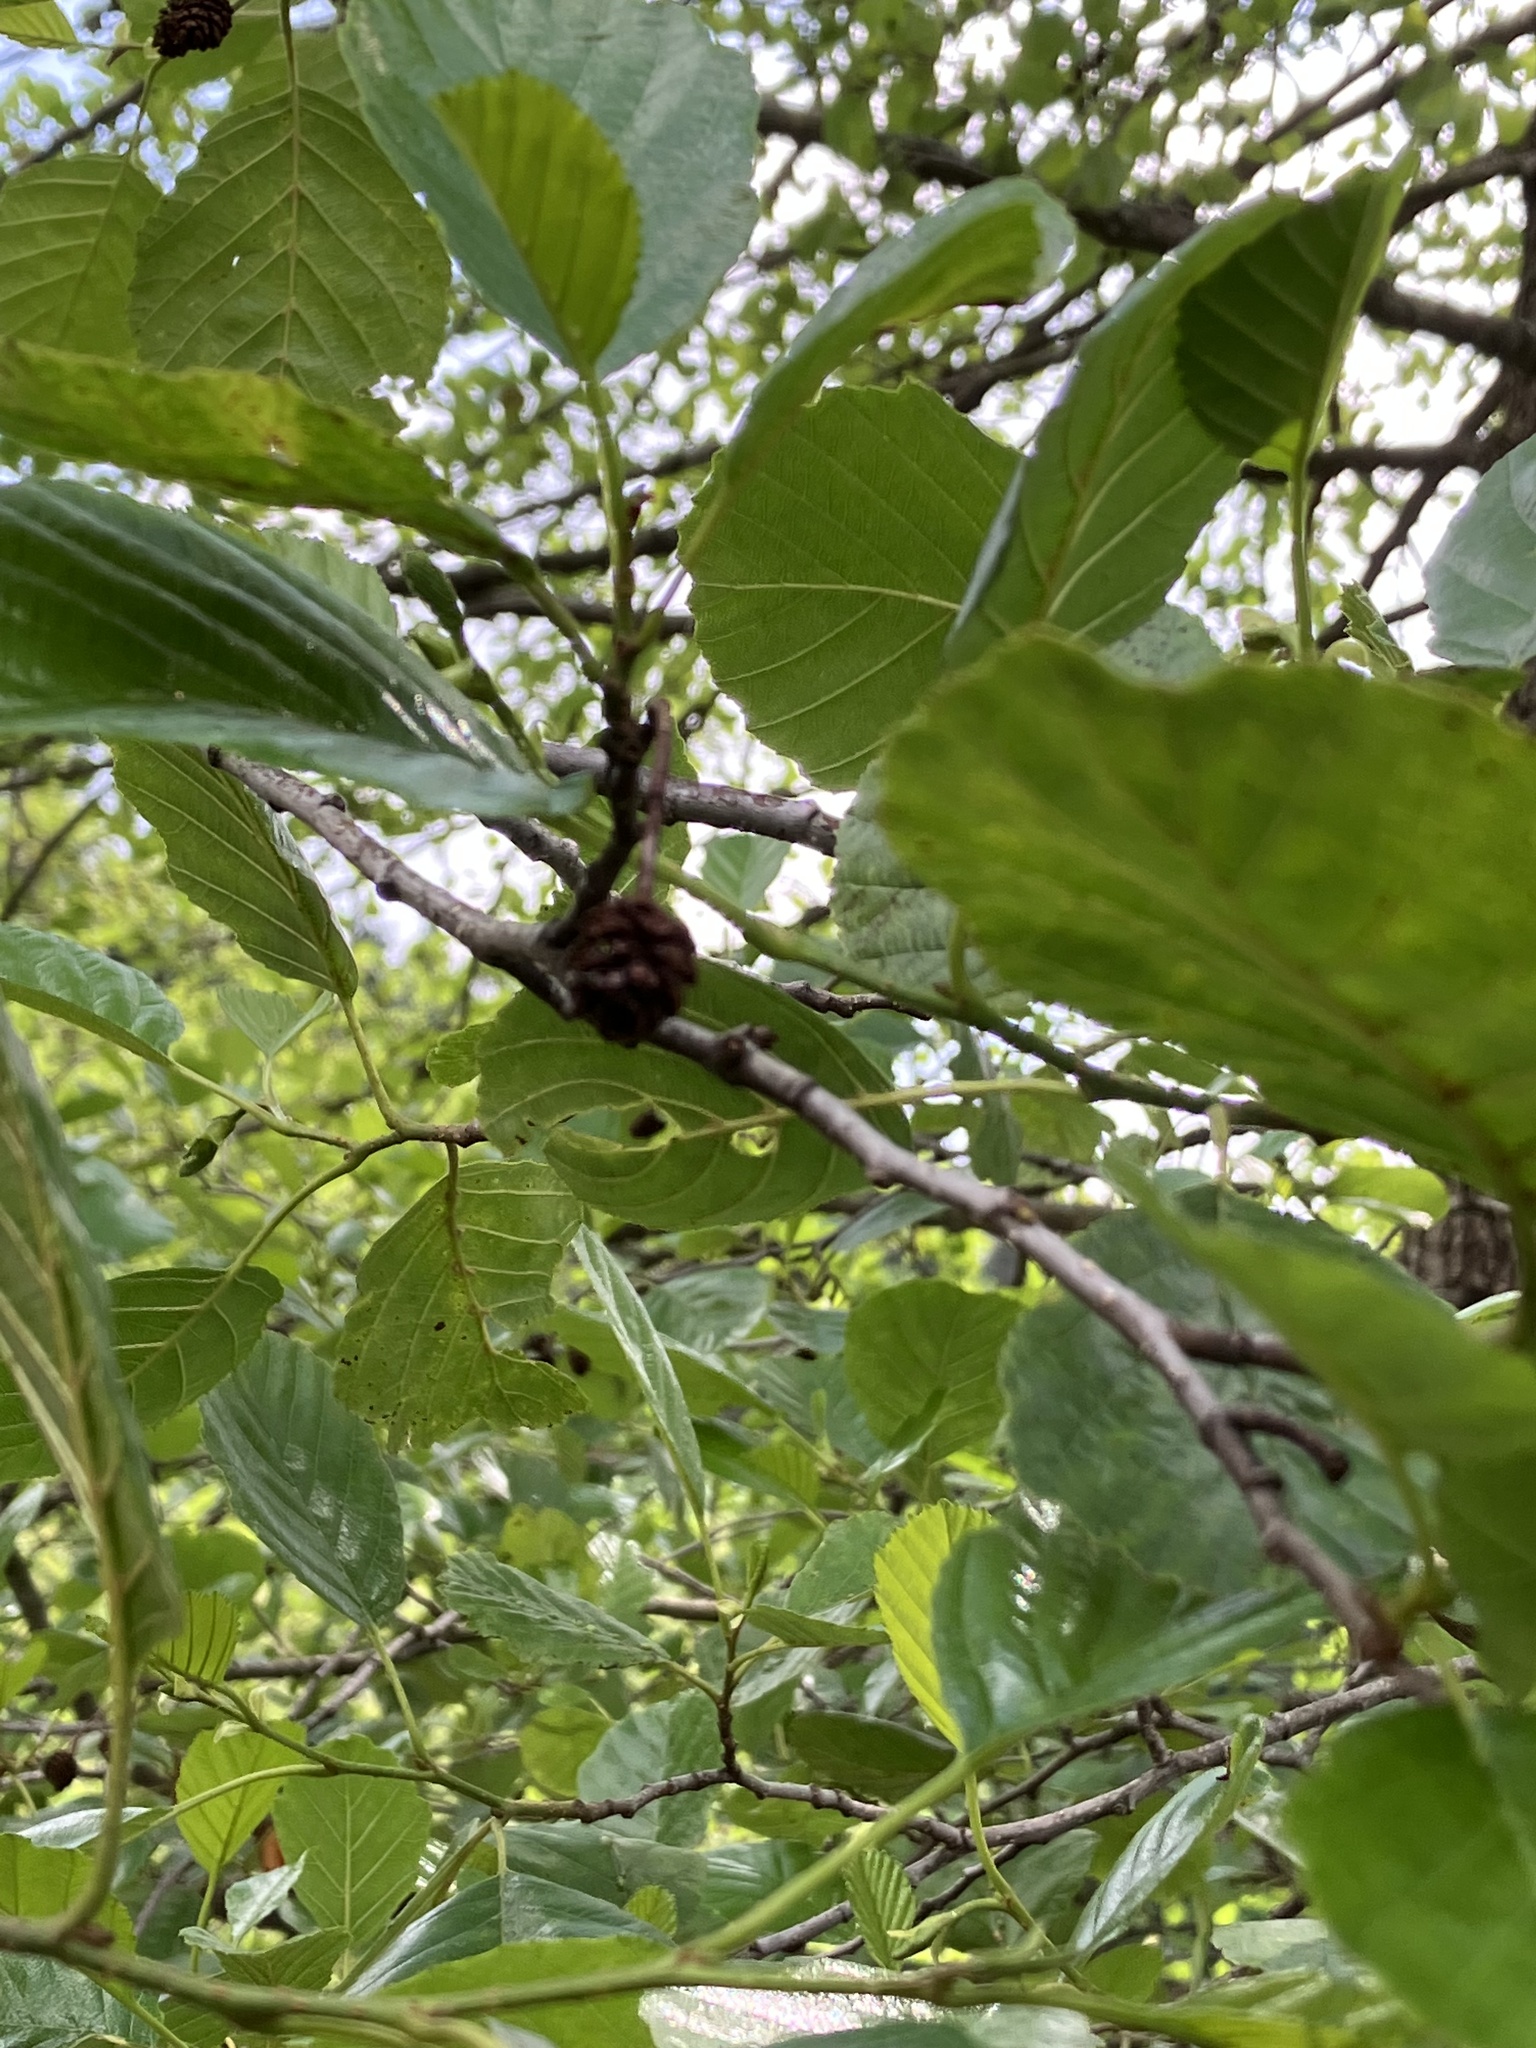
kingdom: Plantae
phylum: Tracheophyta
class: Magnoliopsida
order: Fagales
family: Betulaceae
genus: Alnus
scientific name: Alnus glutinosa
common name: Black alder
